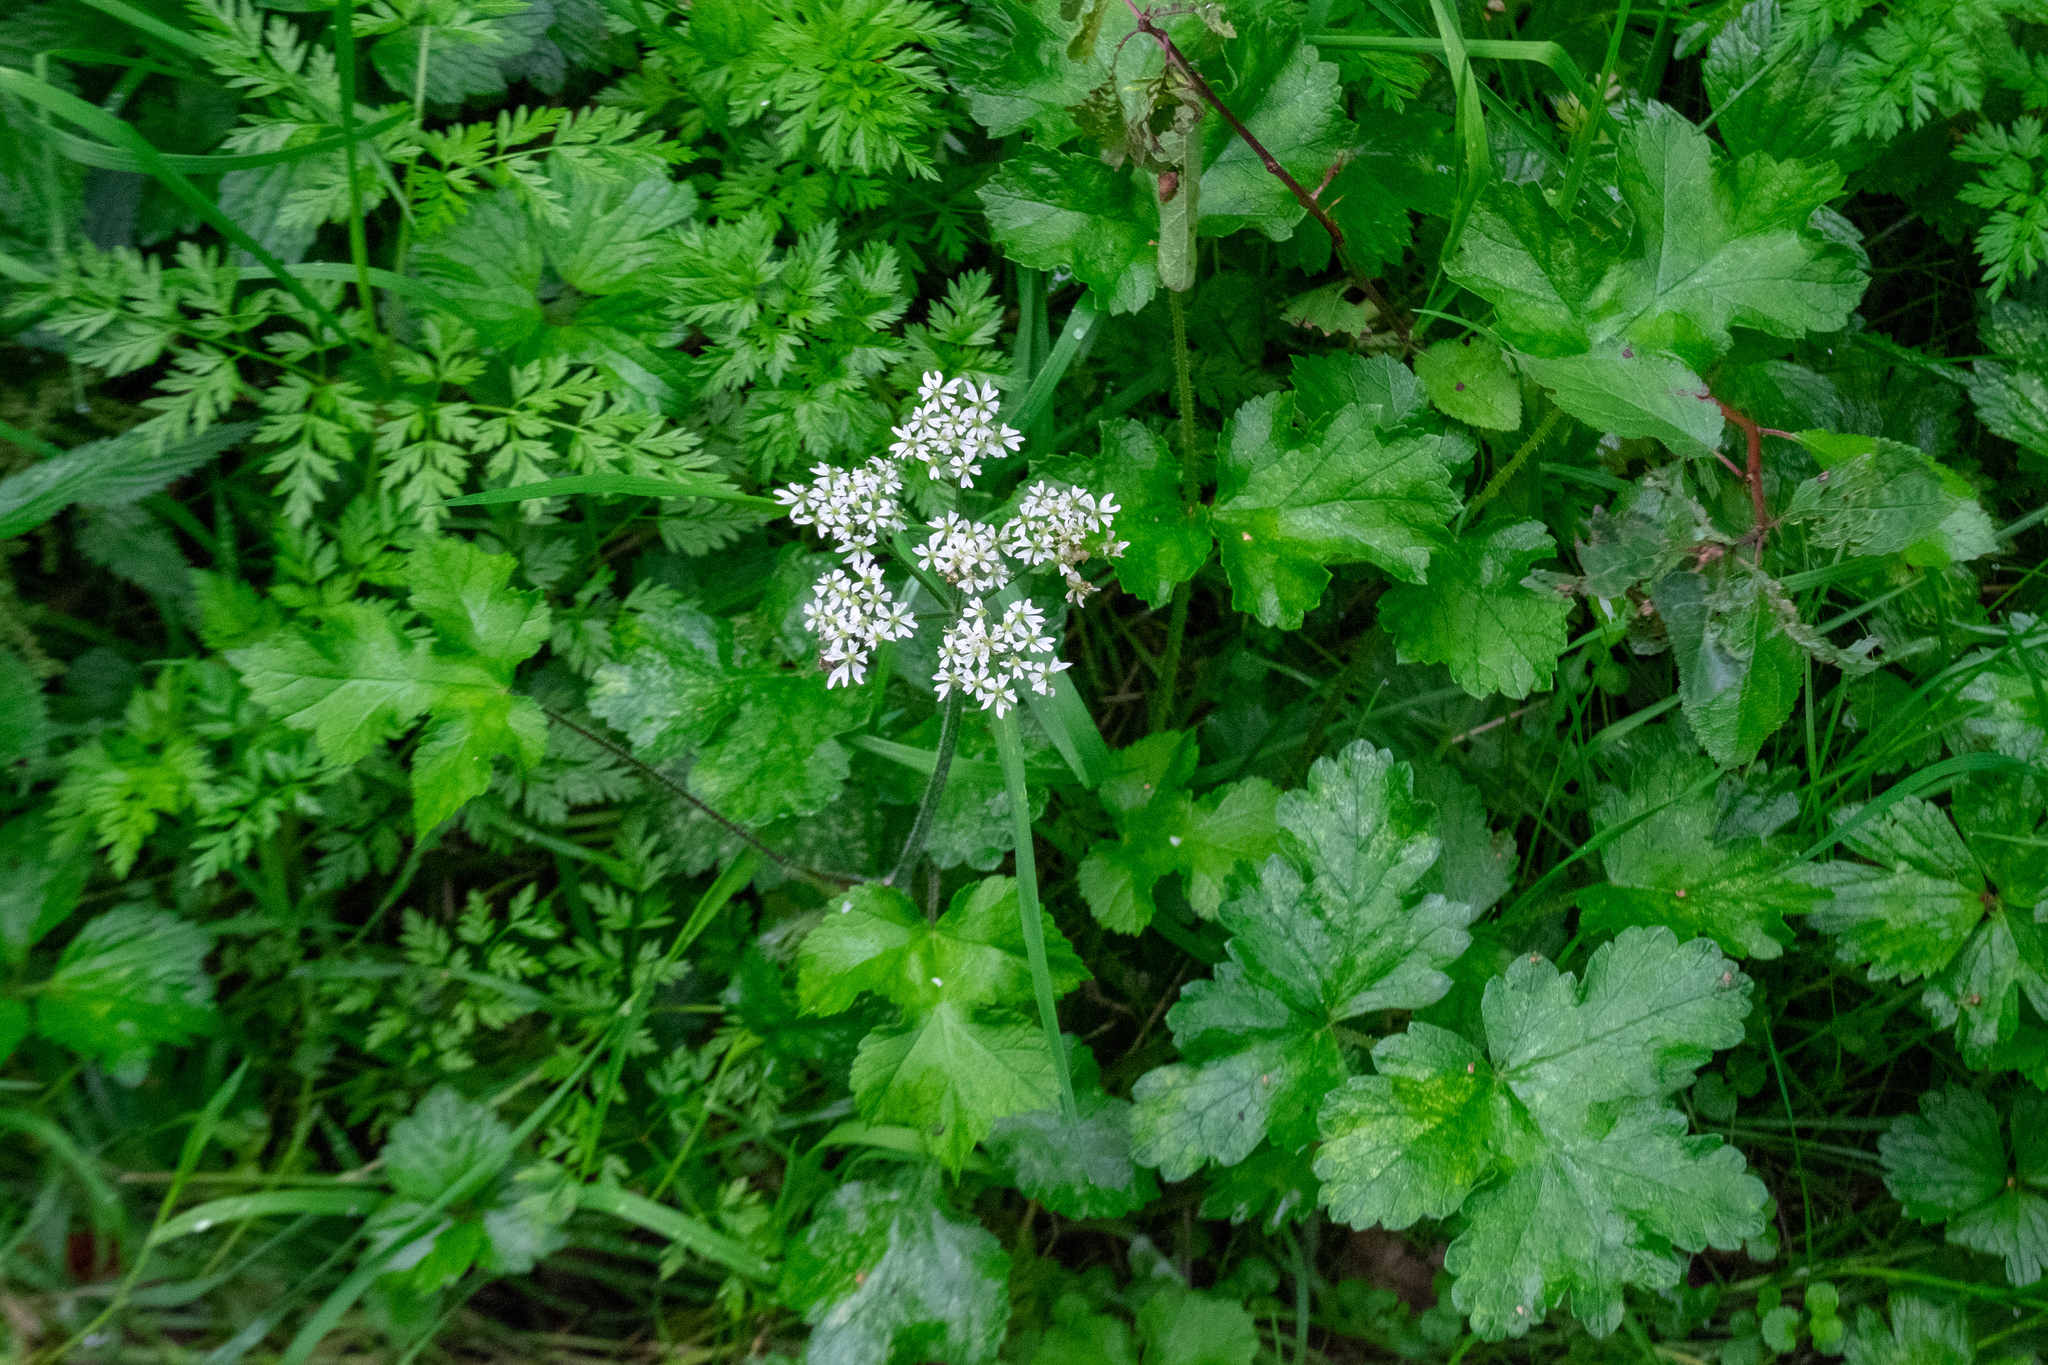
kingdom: Plantae
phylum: Tracheophyta
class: Magnoliopsida
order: Apiales
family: Apiaceae
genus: Heracleum
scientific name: Heracleum sphondylium
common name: Hogweed
